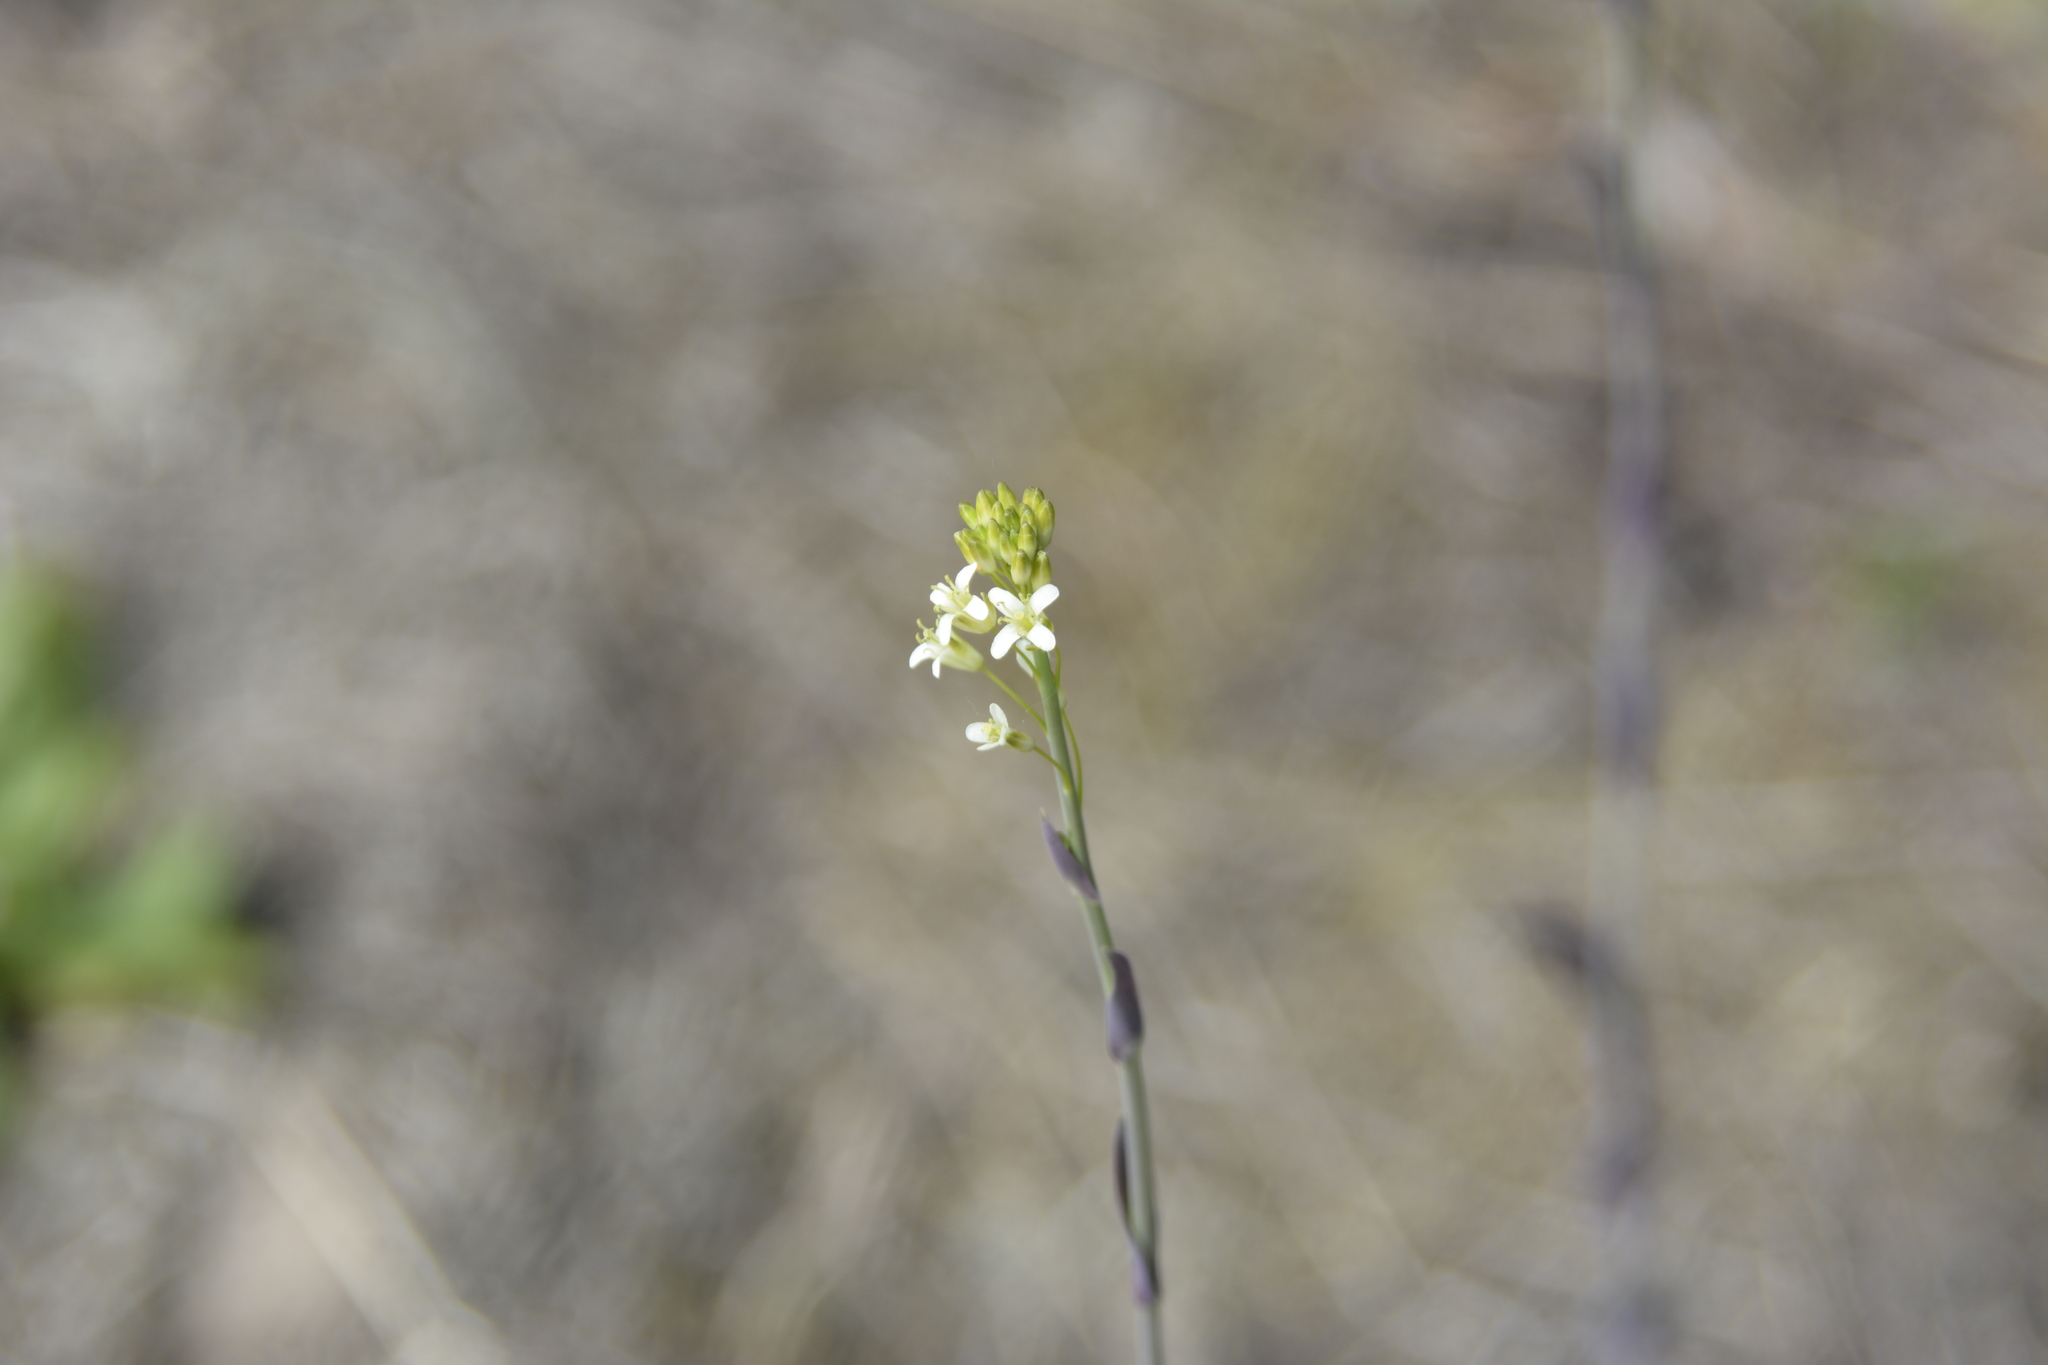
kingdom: Plantae
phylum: Tracheophyta
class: Magnoliopsida
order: Brassicales
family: Brassicaceae
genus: Turritis
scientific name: Turritis glabra
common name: Tower rockcress
